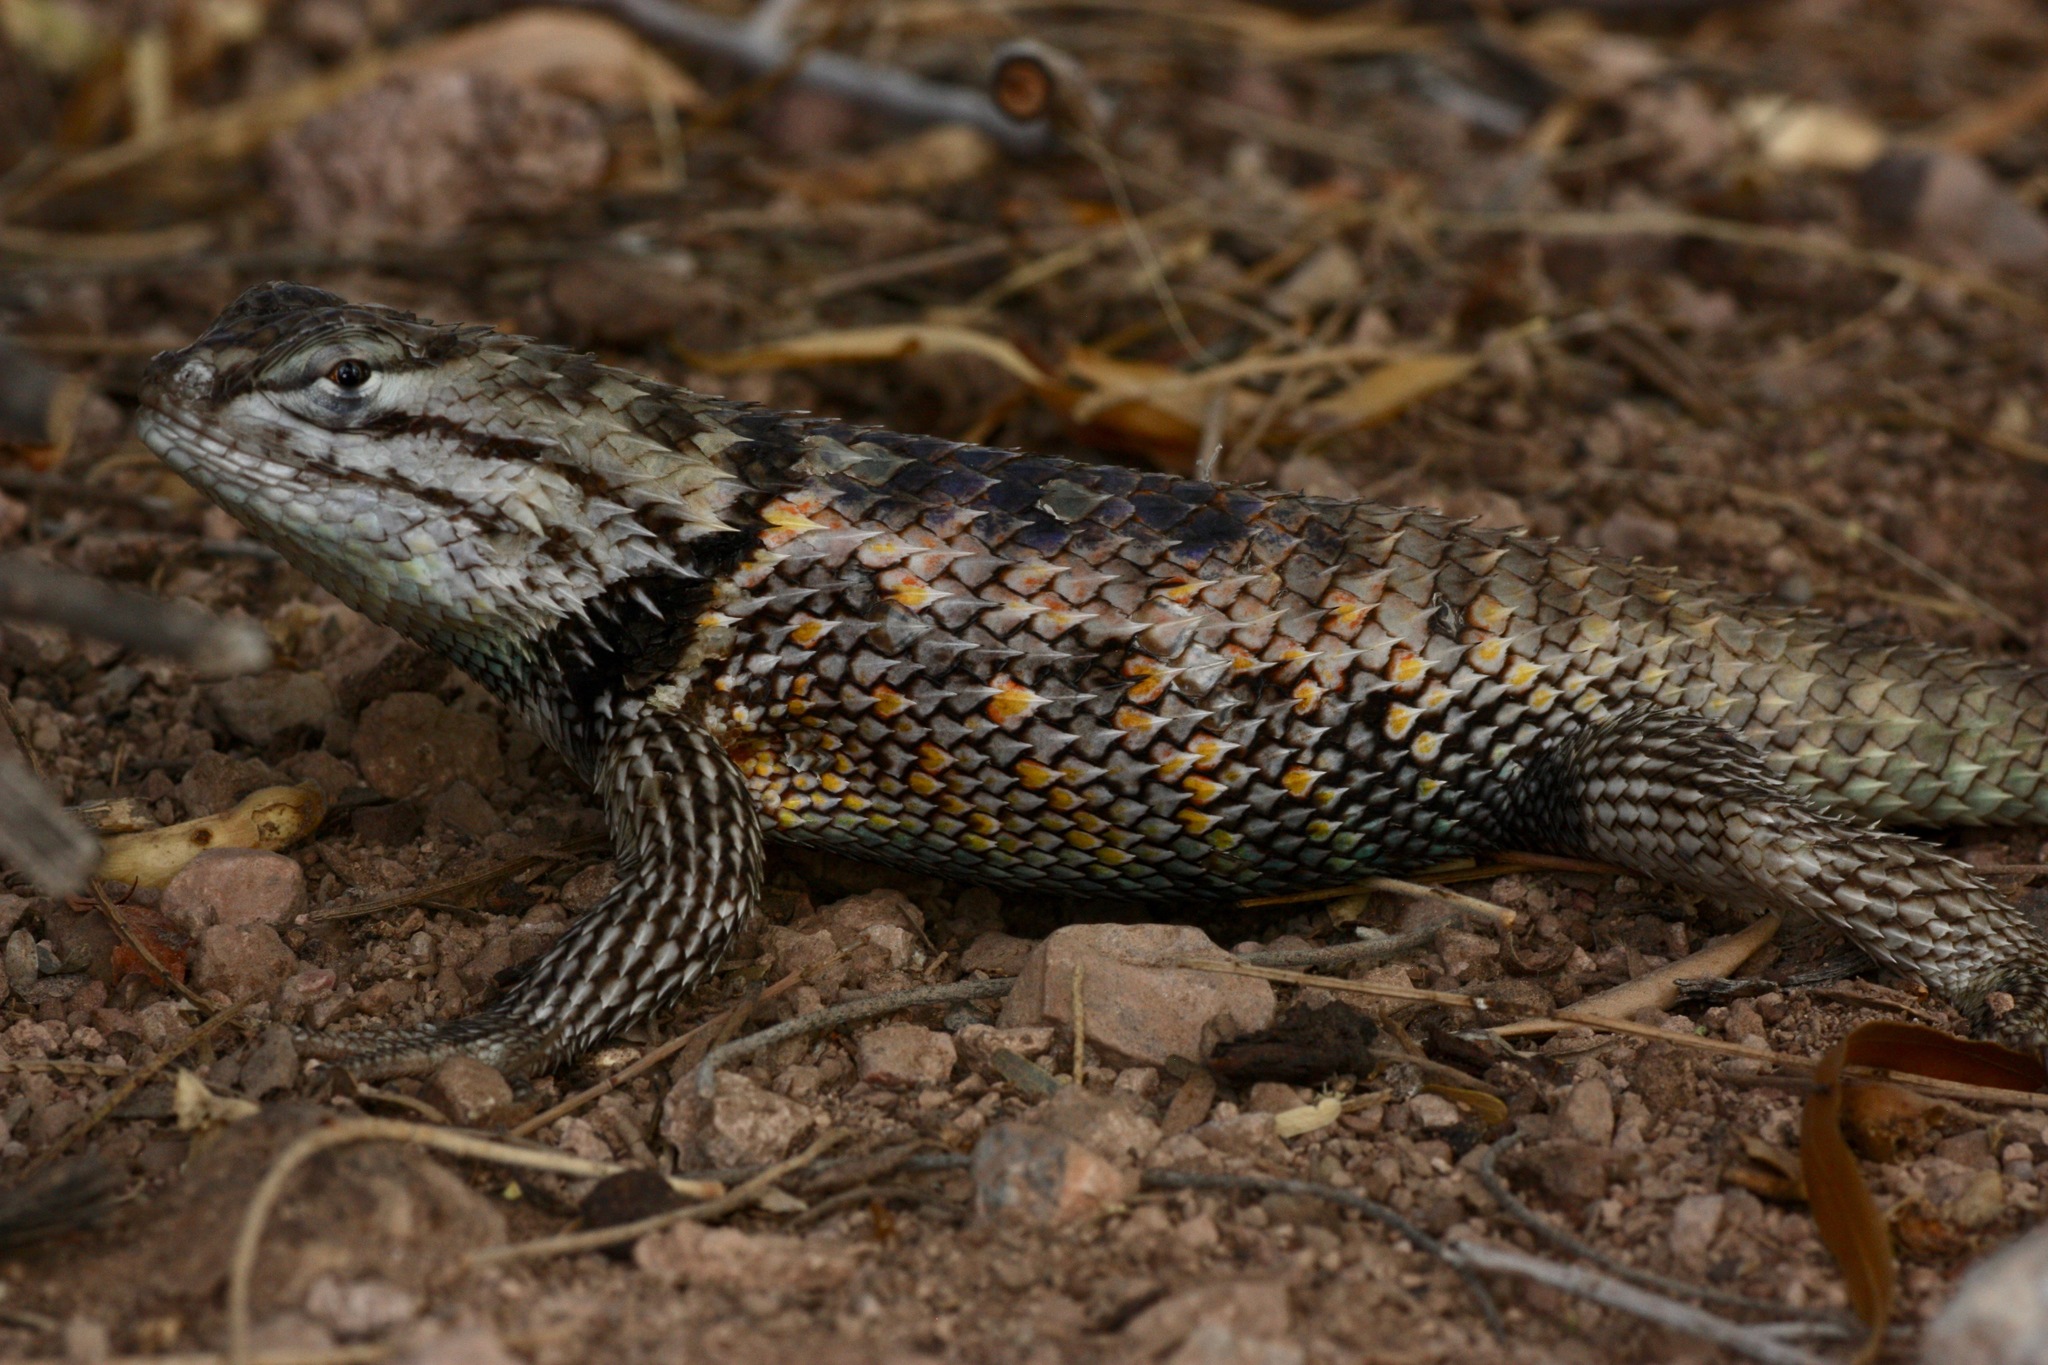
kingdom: Animalia
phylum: Chordata
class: Squamata
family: Phrynosomatidae
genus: Sceloporus
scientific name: Sceloporus magister
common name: Desert spiny lizard
